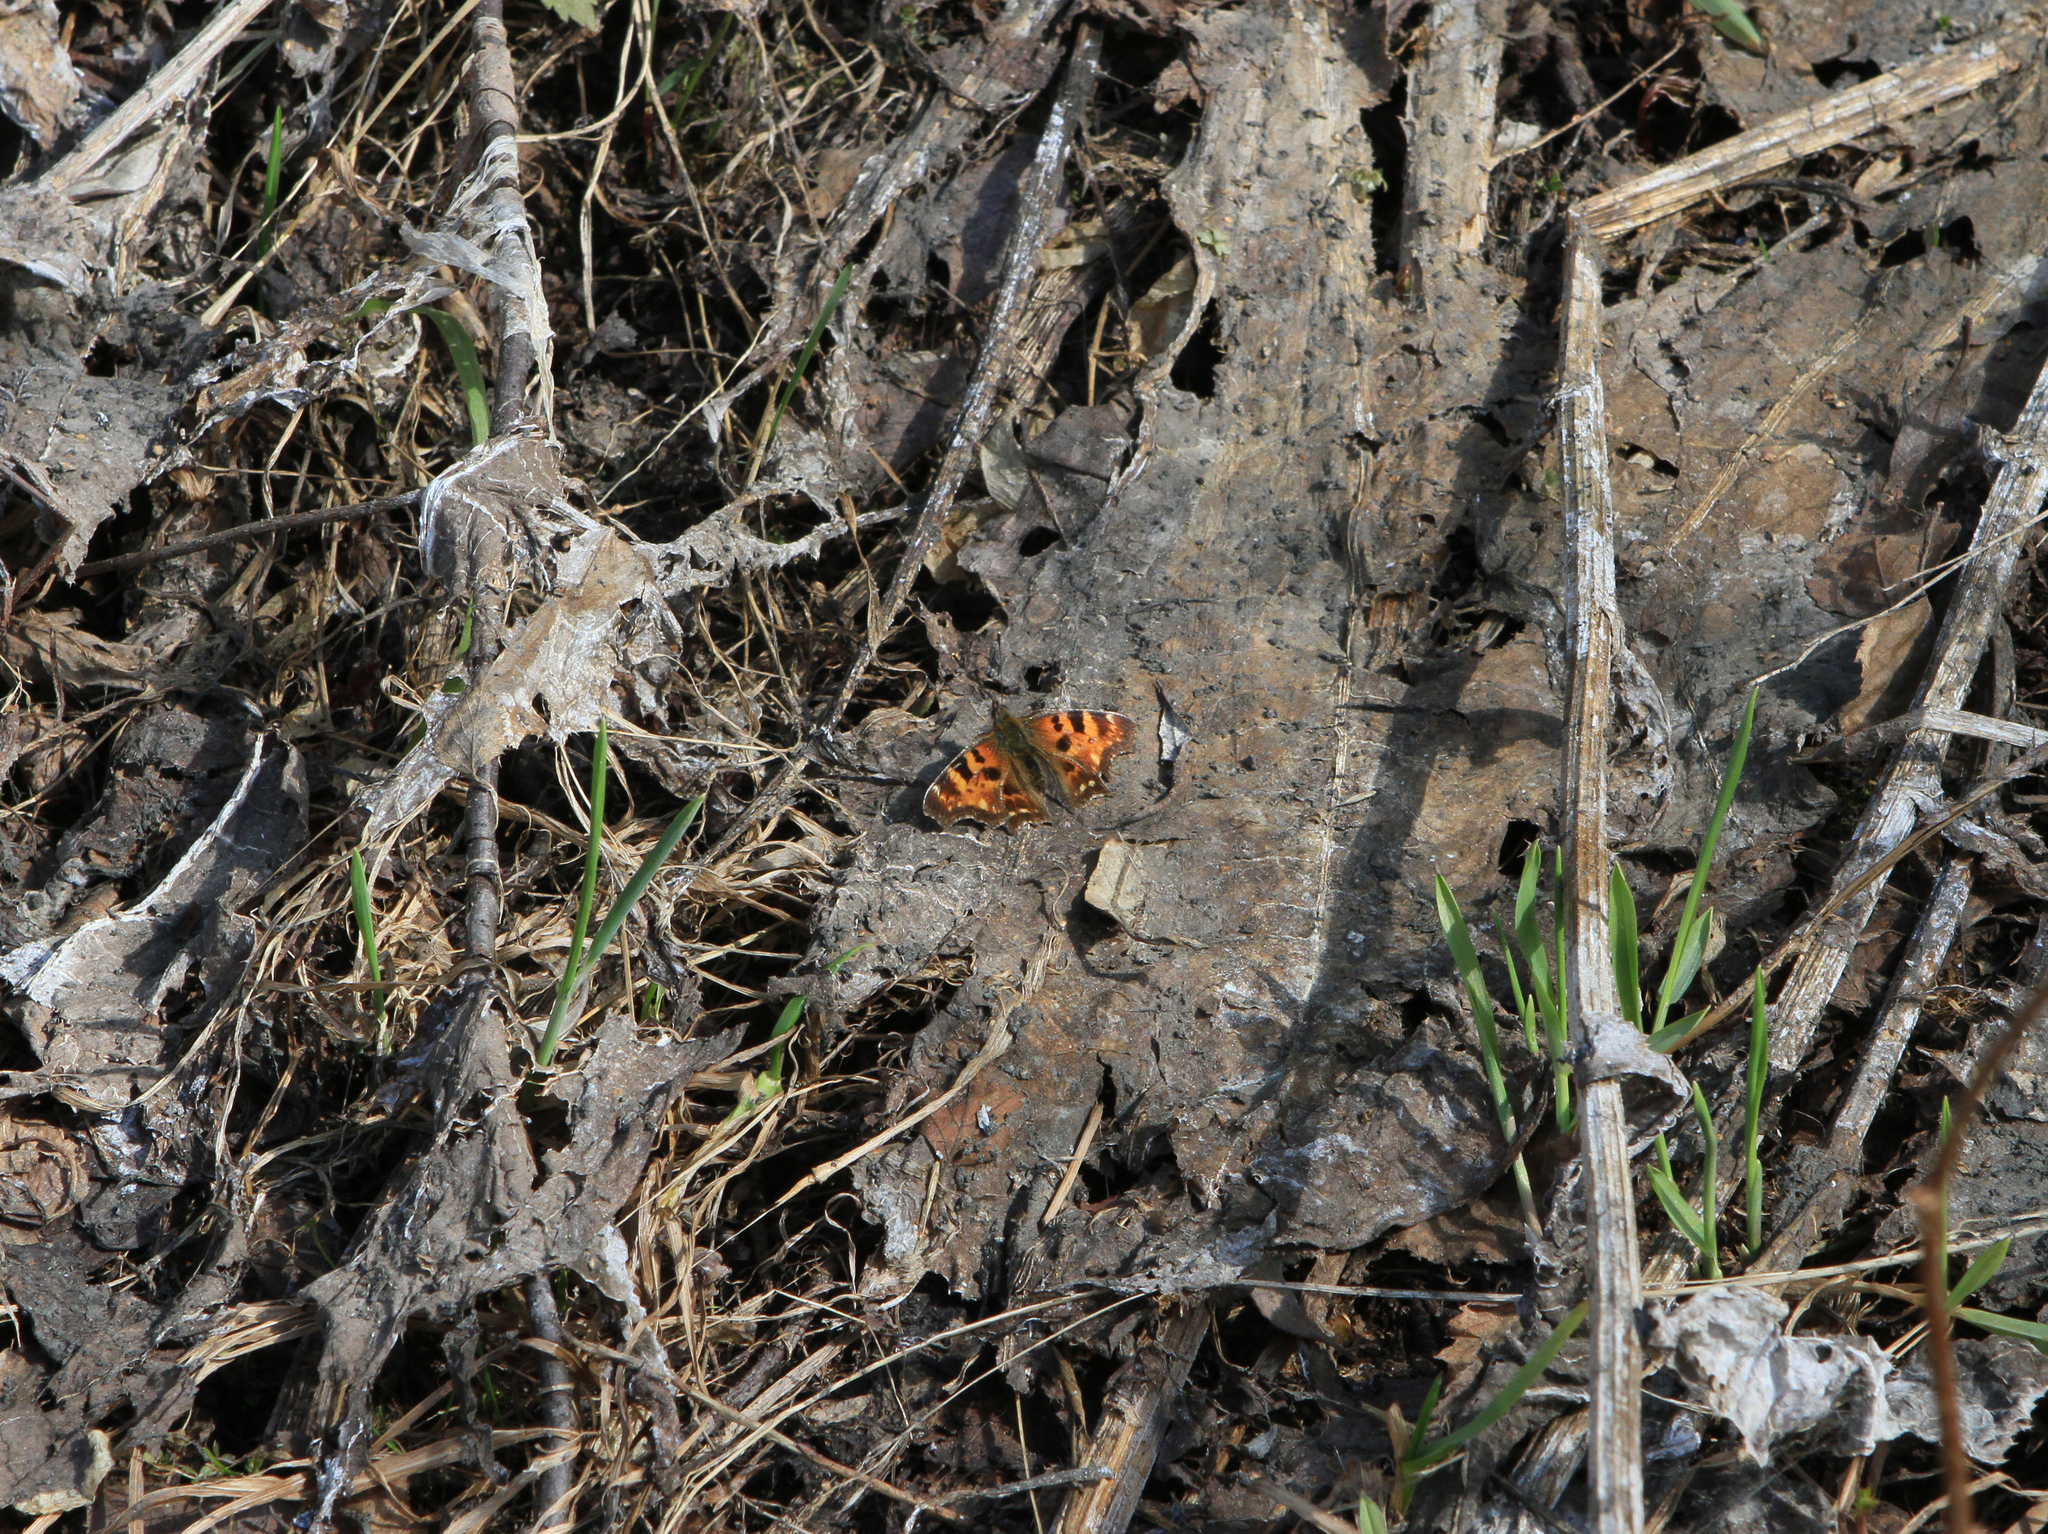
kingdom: Animalia
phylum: Arthropoda
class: Insecta
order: Lepidoptera
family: Nymphalidae
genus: Polygonia
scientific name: Polygonia c-album
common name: Comma
